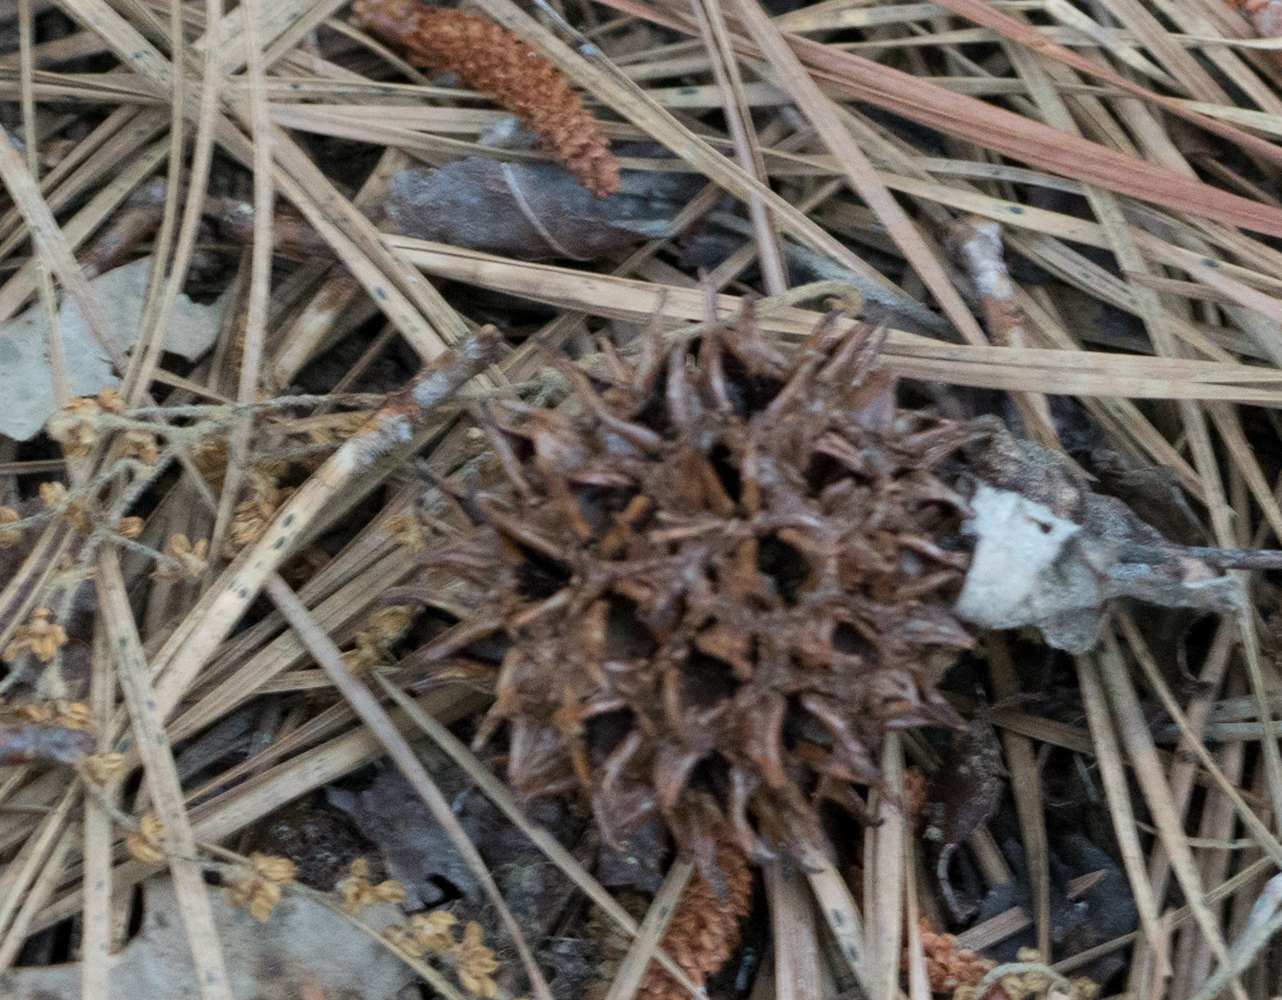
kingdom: Plantae
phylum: Tracheophyta
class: Magnoliopsida
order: Saxifragales
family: Altingiaceae
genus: Liquidambar
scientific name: Liquidambar styraciflua
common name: Sweet gum
